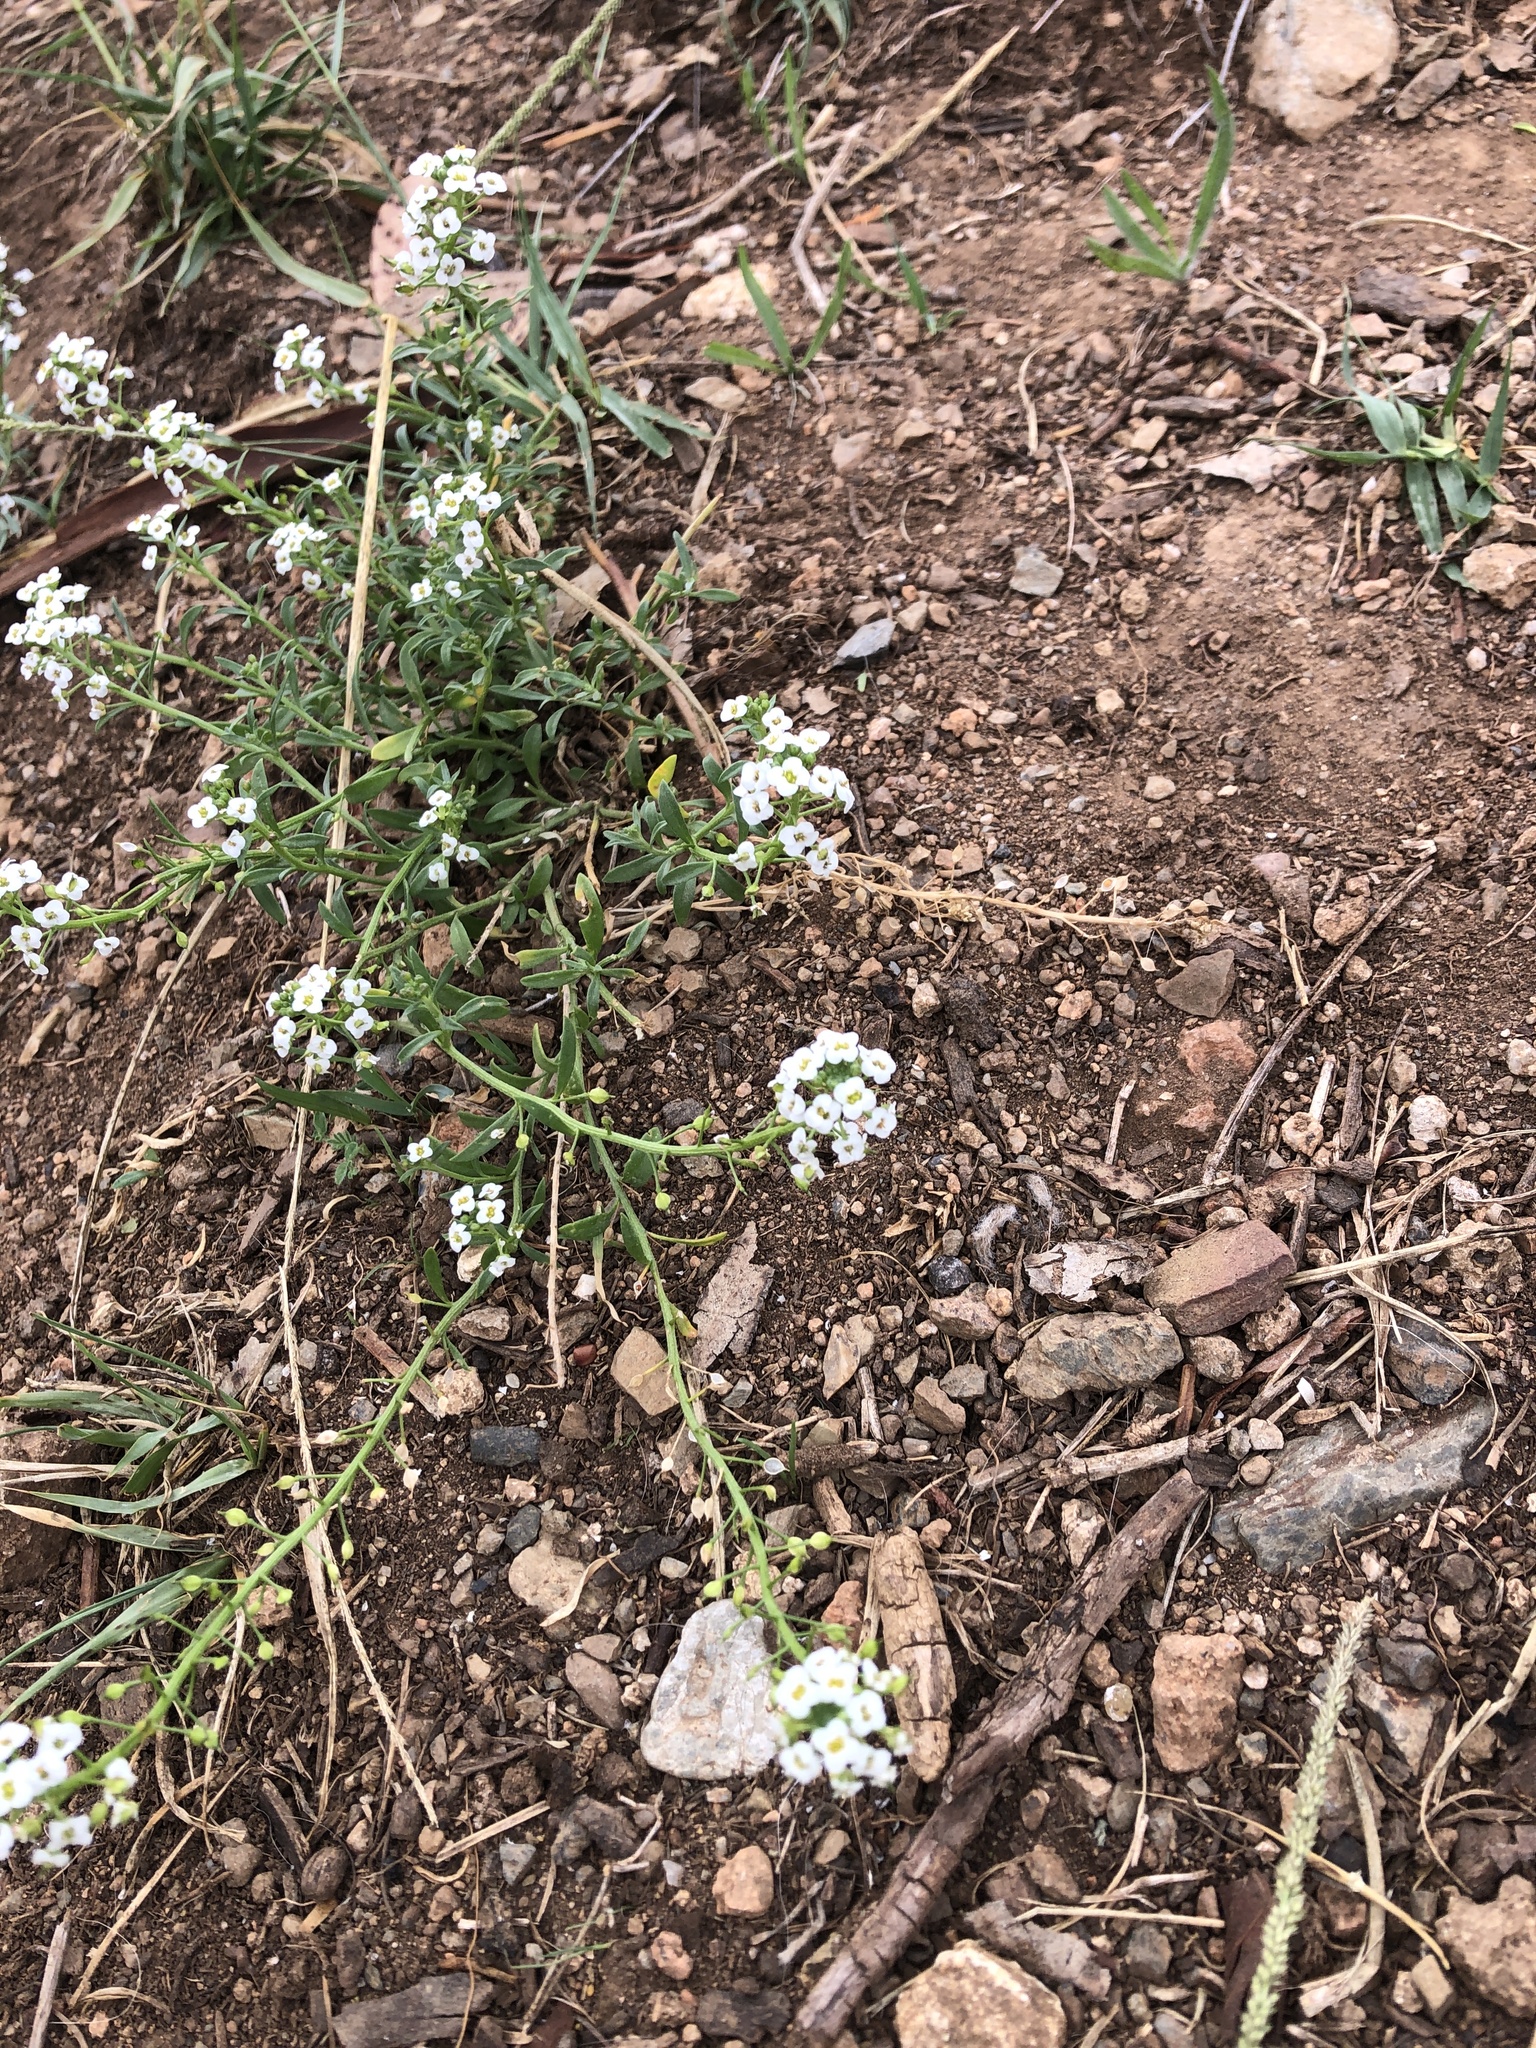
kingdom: Plantae
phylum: Tracheophyta
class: Magnoliopsida
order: Brassicales
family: Brassicaceae
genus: Lobularia
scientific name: Lobularia maritima
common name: Sweet alison
